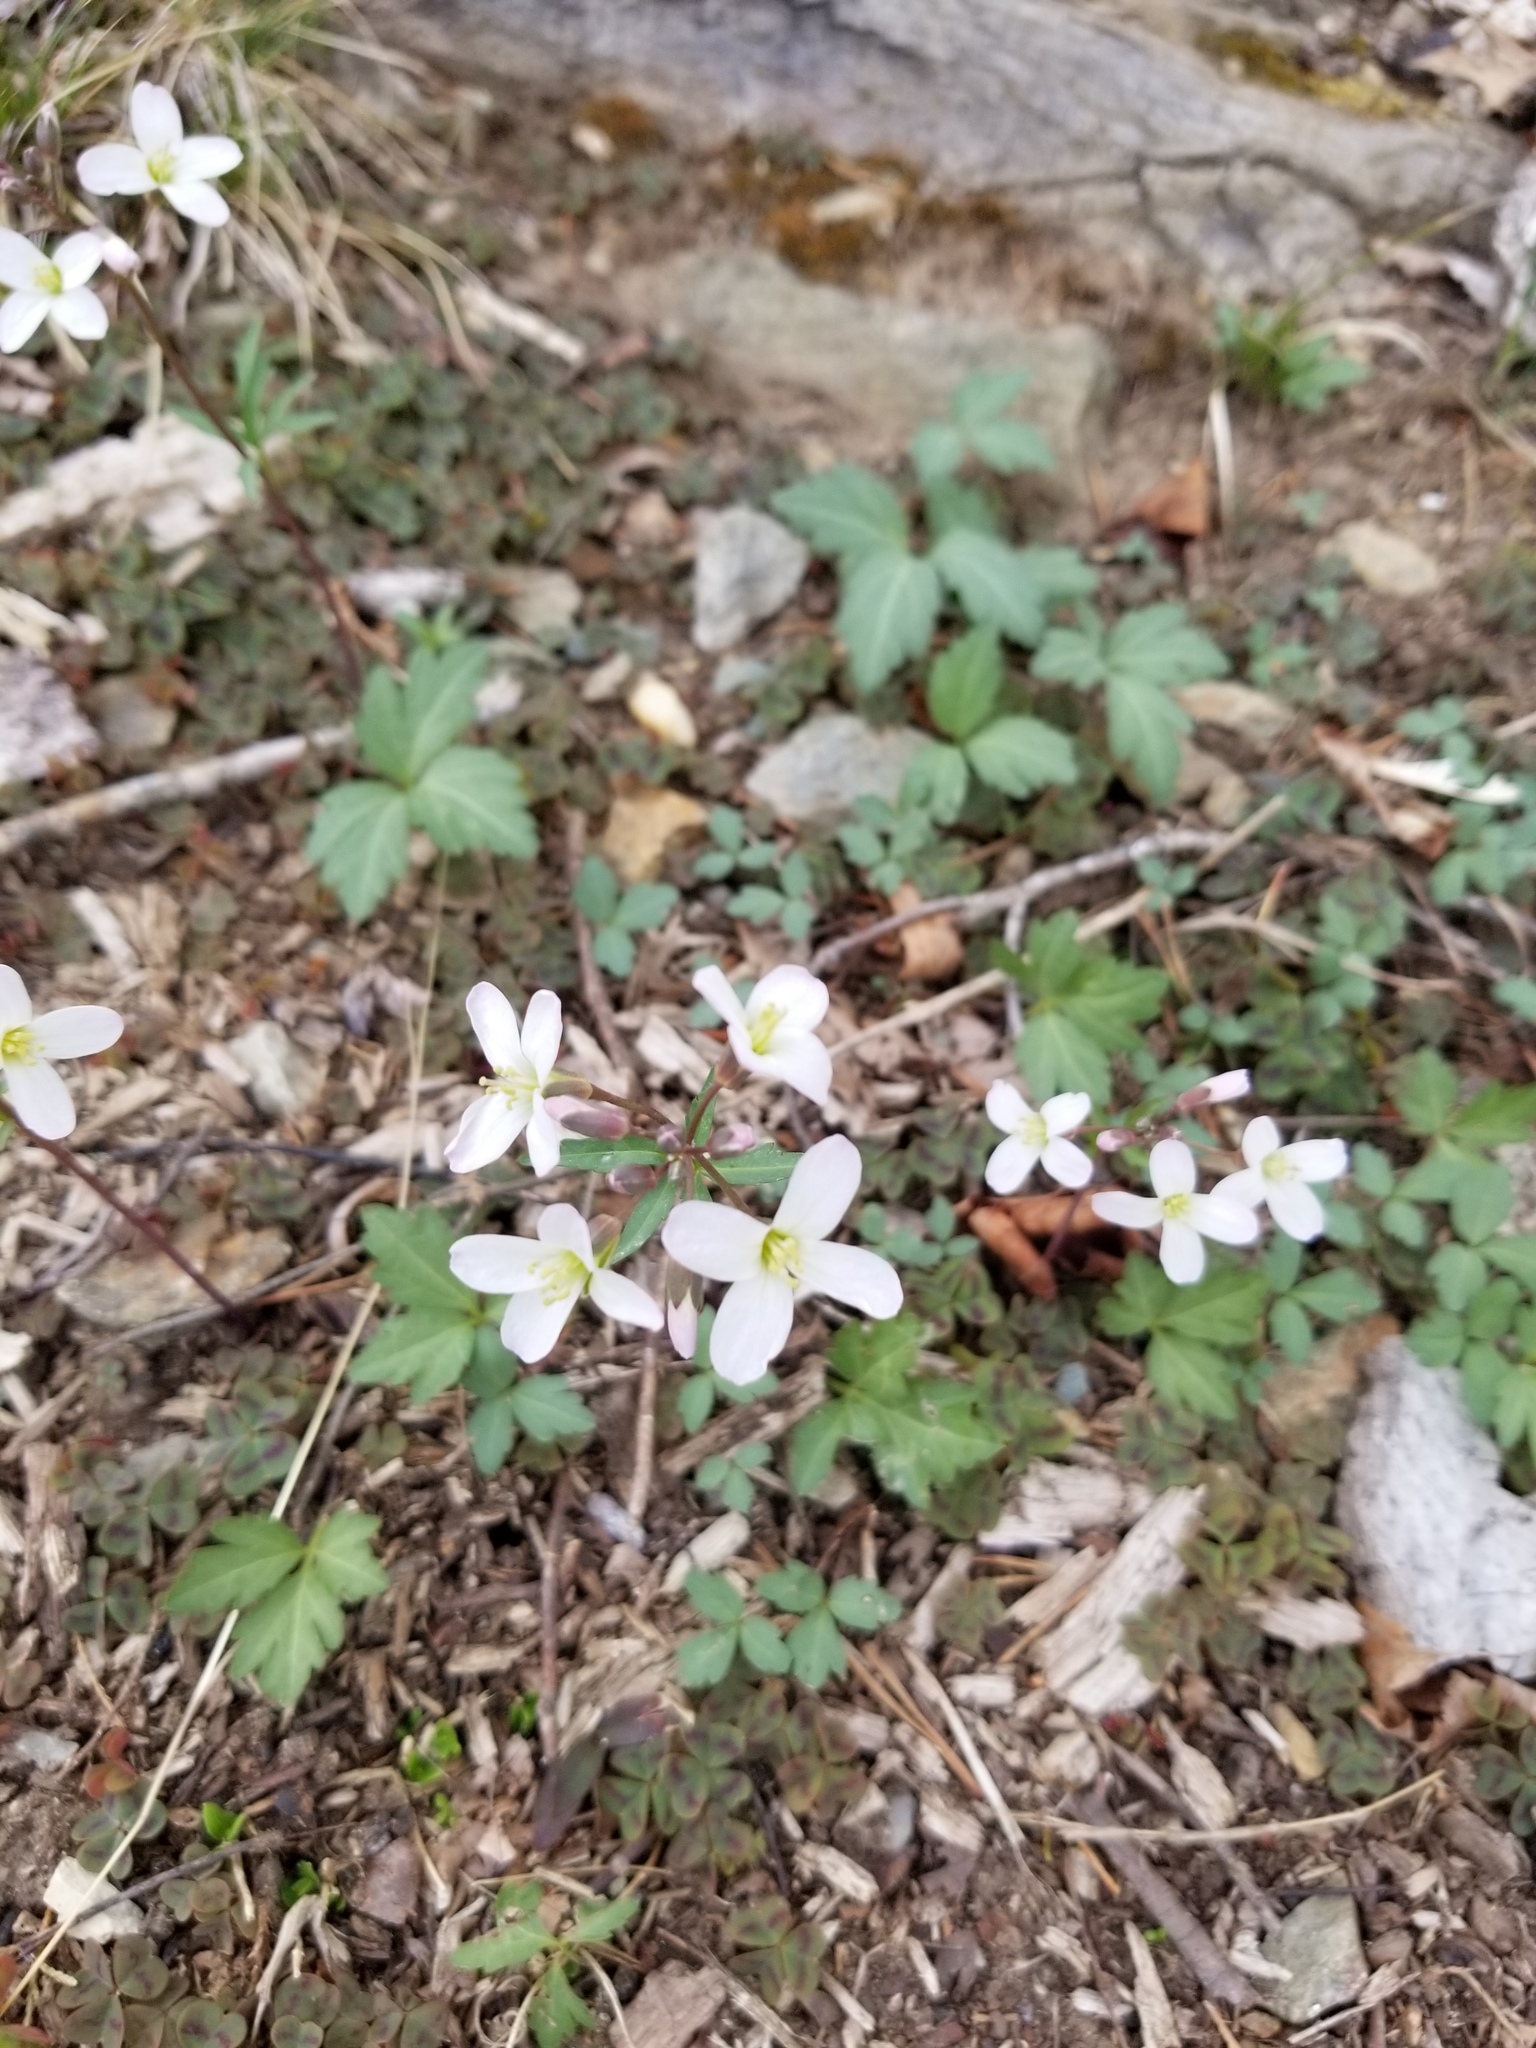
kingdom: Plantae
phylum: Tracheophyta
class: Magnoliopsida
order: Brassicales
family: Brassicaceae
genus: Cardamine
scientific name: Cardamine angustata
